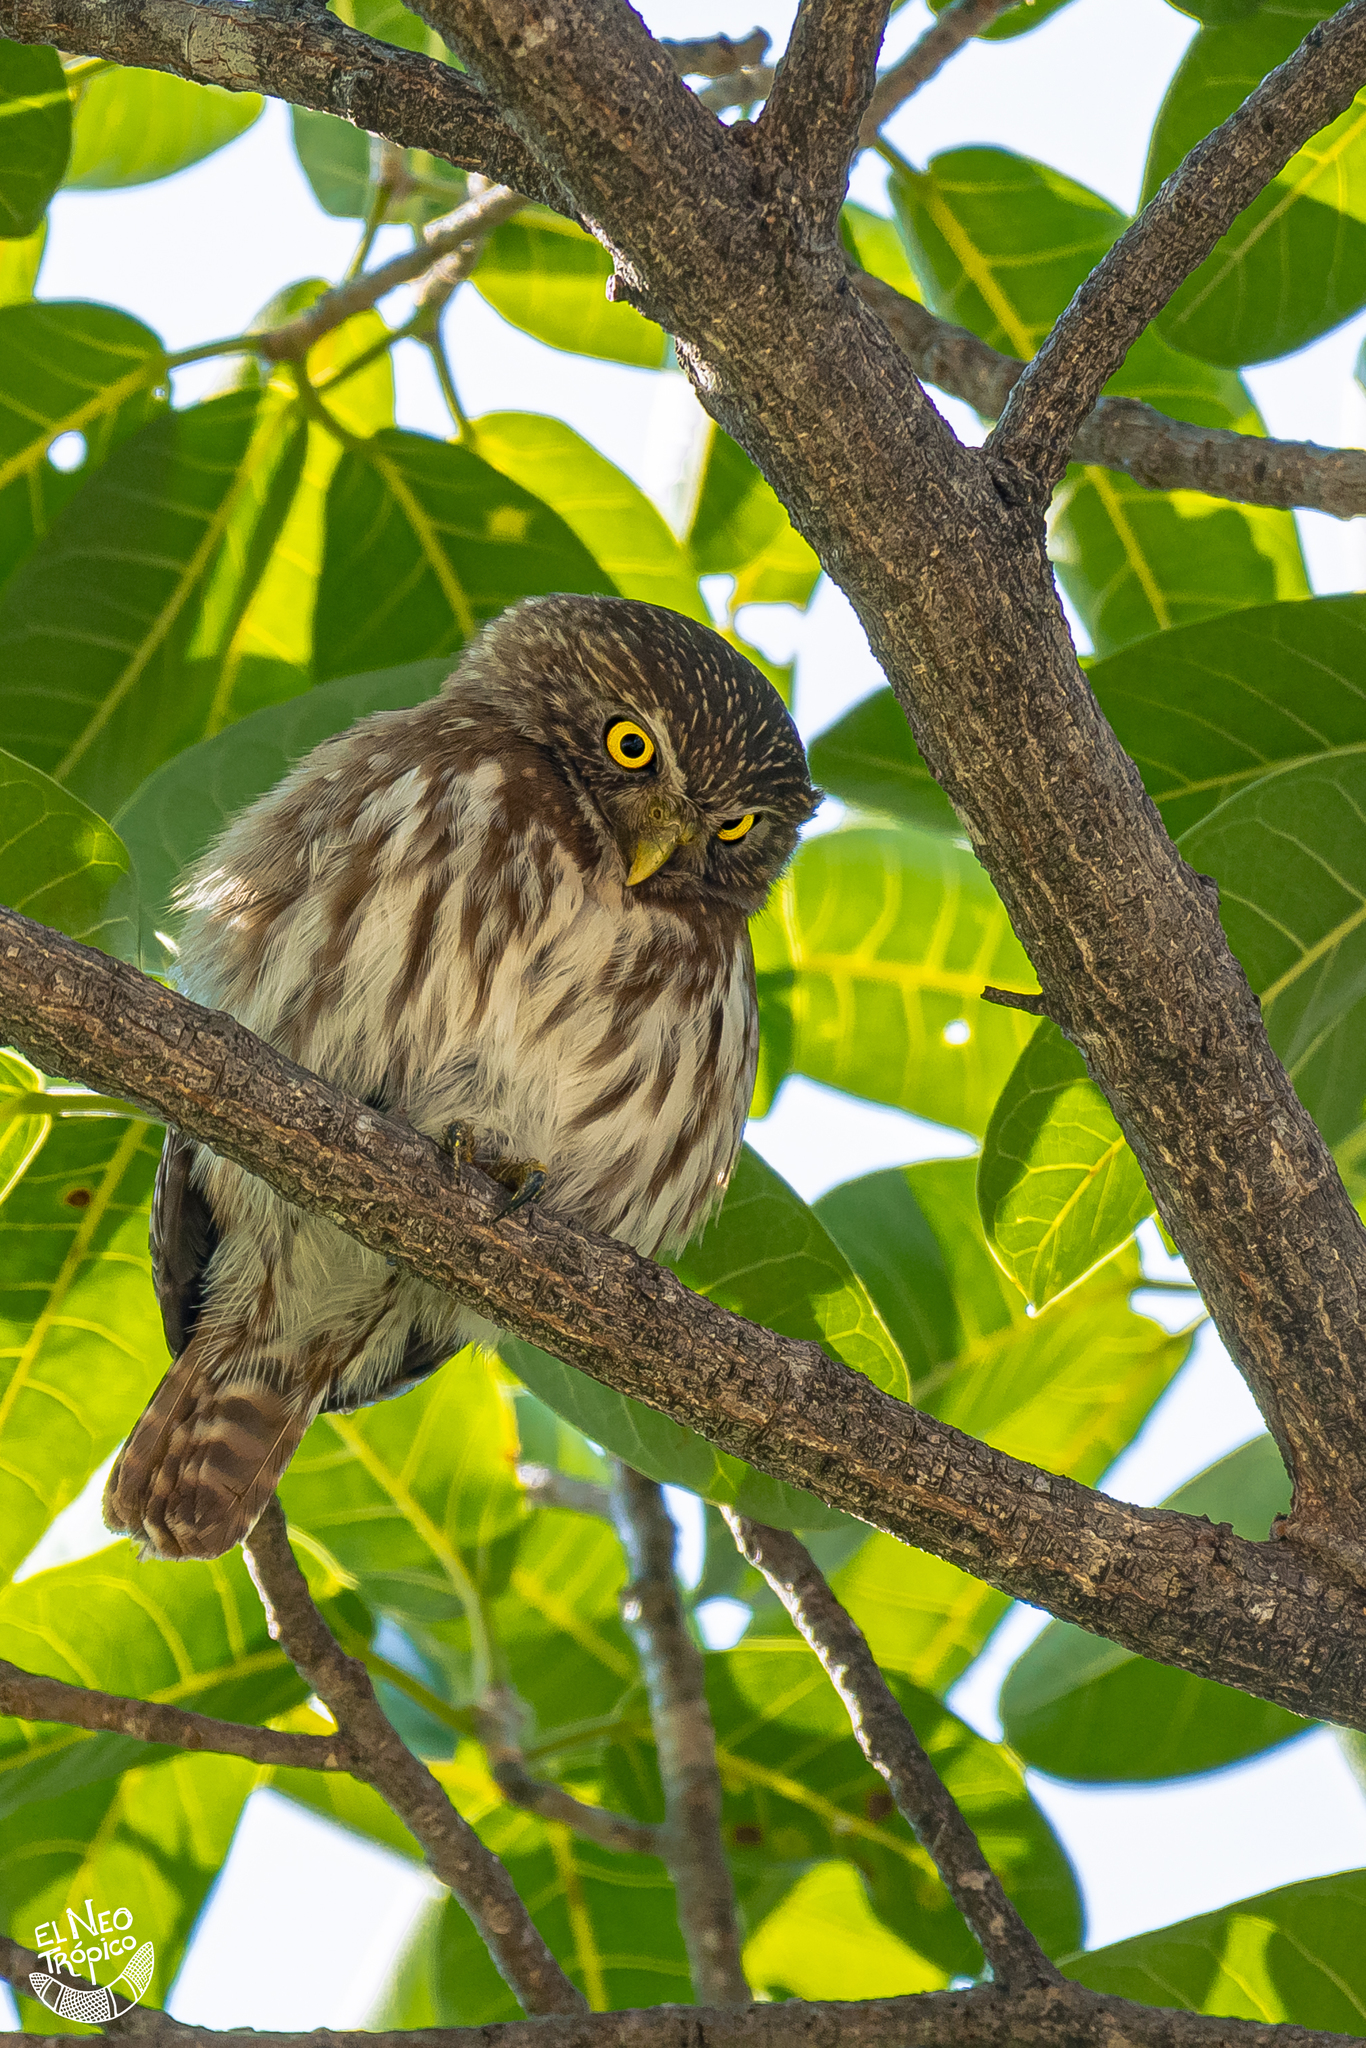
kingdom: Animalia
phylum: Chordata
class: Aves
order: Strigiformes
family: Strigidae
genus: Glaucidium
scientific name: Glaucidium brasilianum
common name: Ferruginous pygmy-owl
